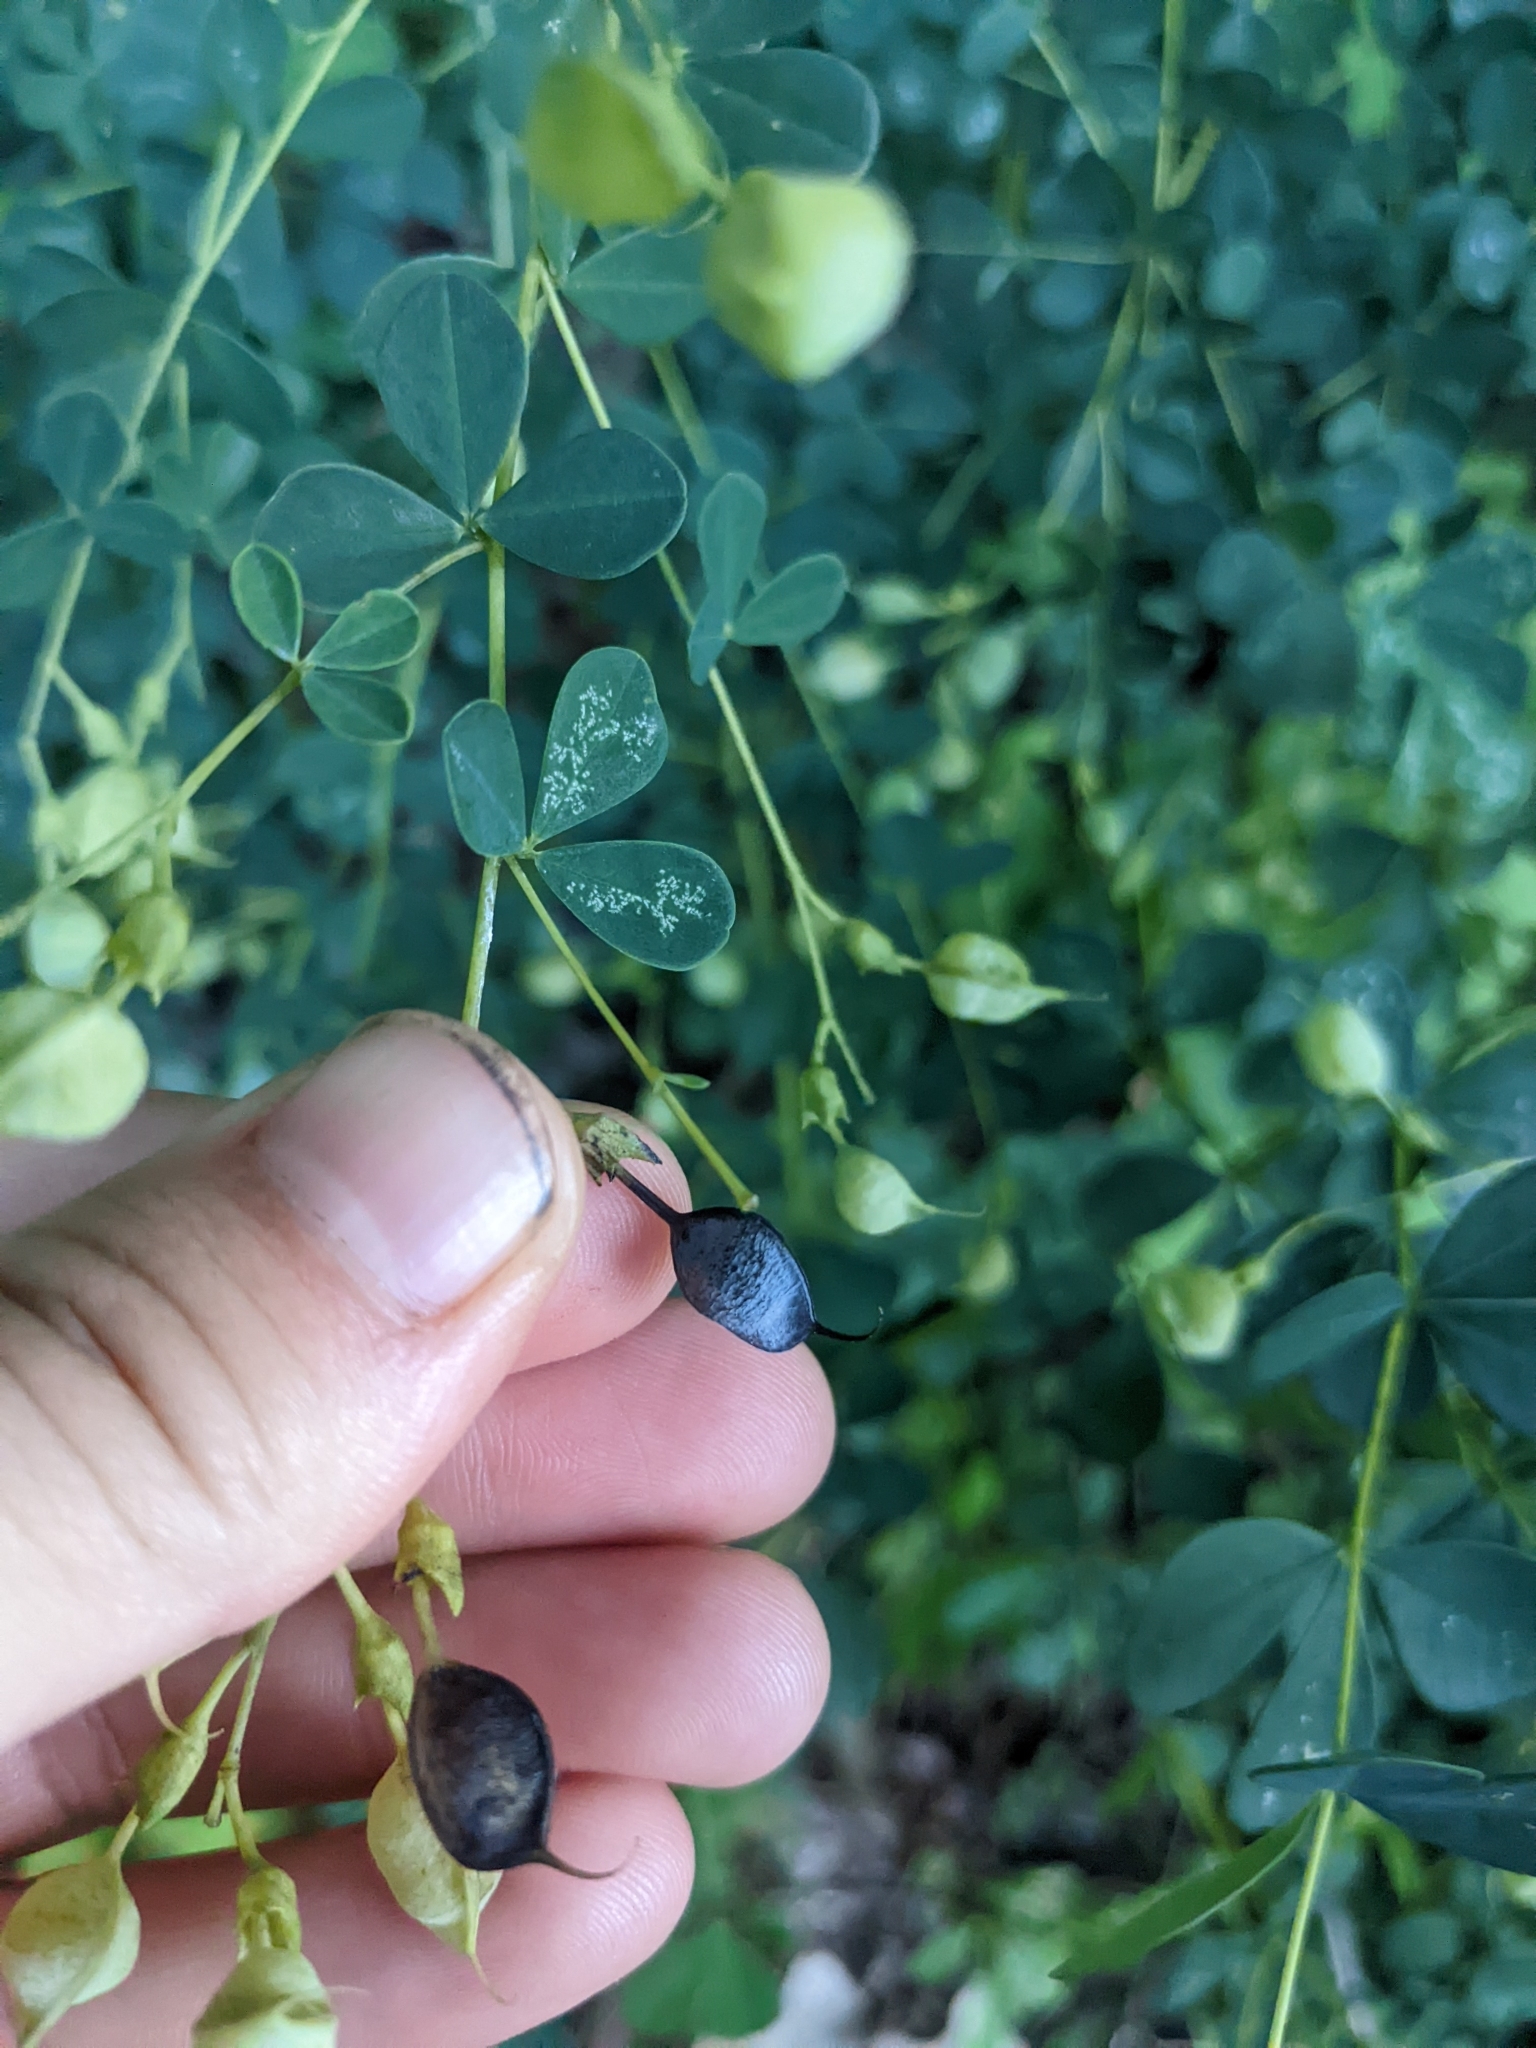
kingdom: Plantae
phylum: Tracheophyta
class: Magnoliopsida
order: Fabales
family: Fabaceae
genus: Baptisia
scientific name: Baptisia tinctoria
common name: Wild indigo
